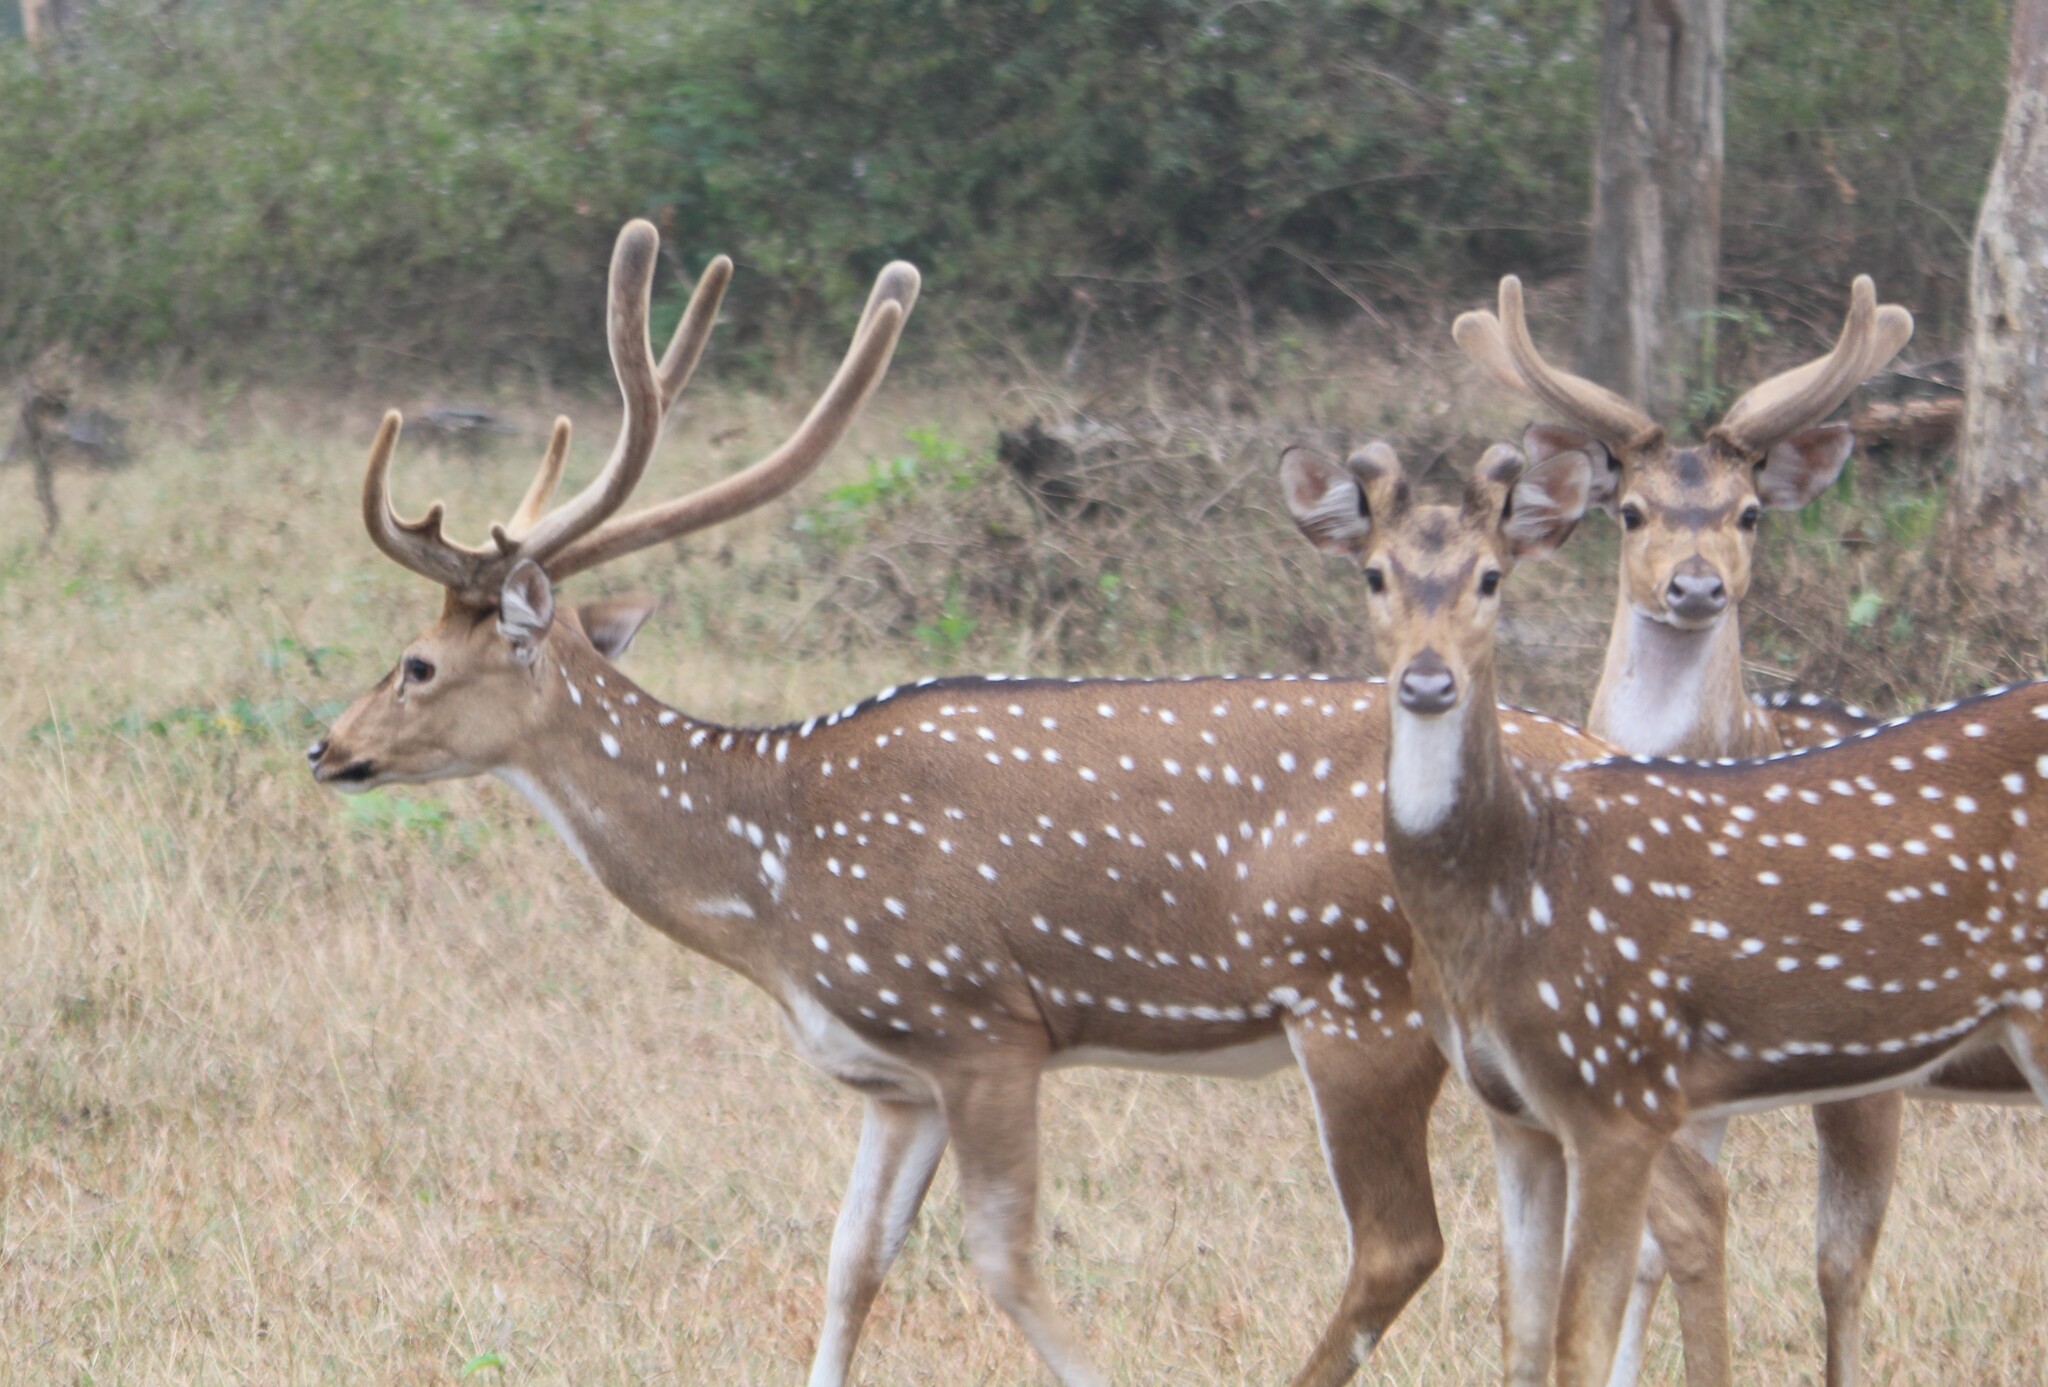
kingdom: Animalia
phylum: Chordata
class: Mammalia
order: Artiodactyla
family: Cervidae
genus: Axis
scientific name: Axis axis
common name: Chital
